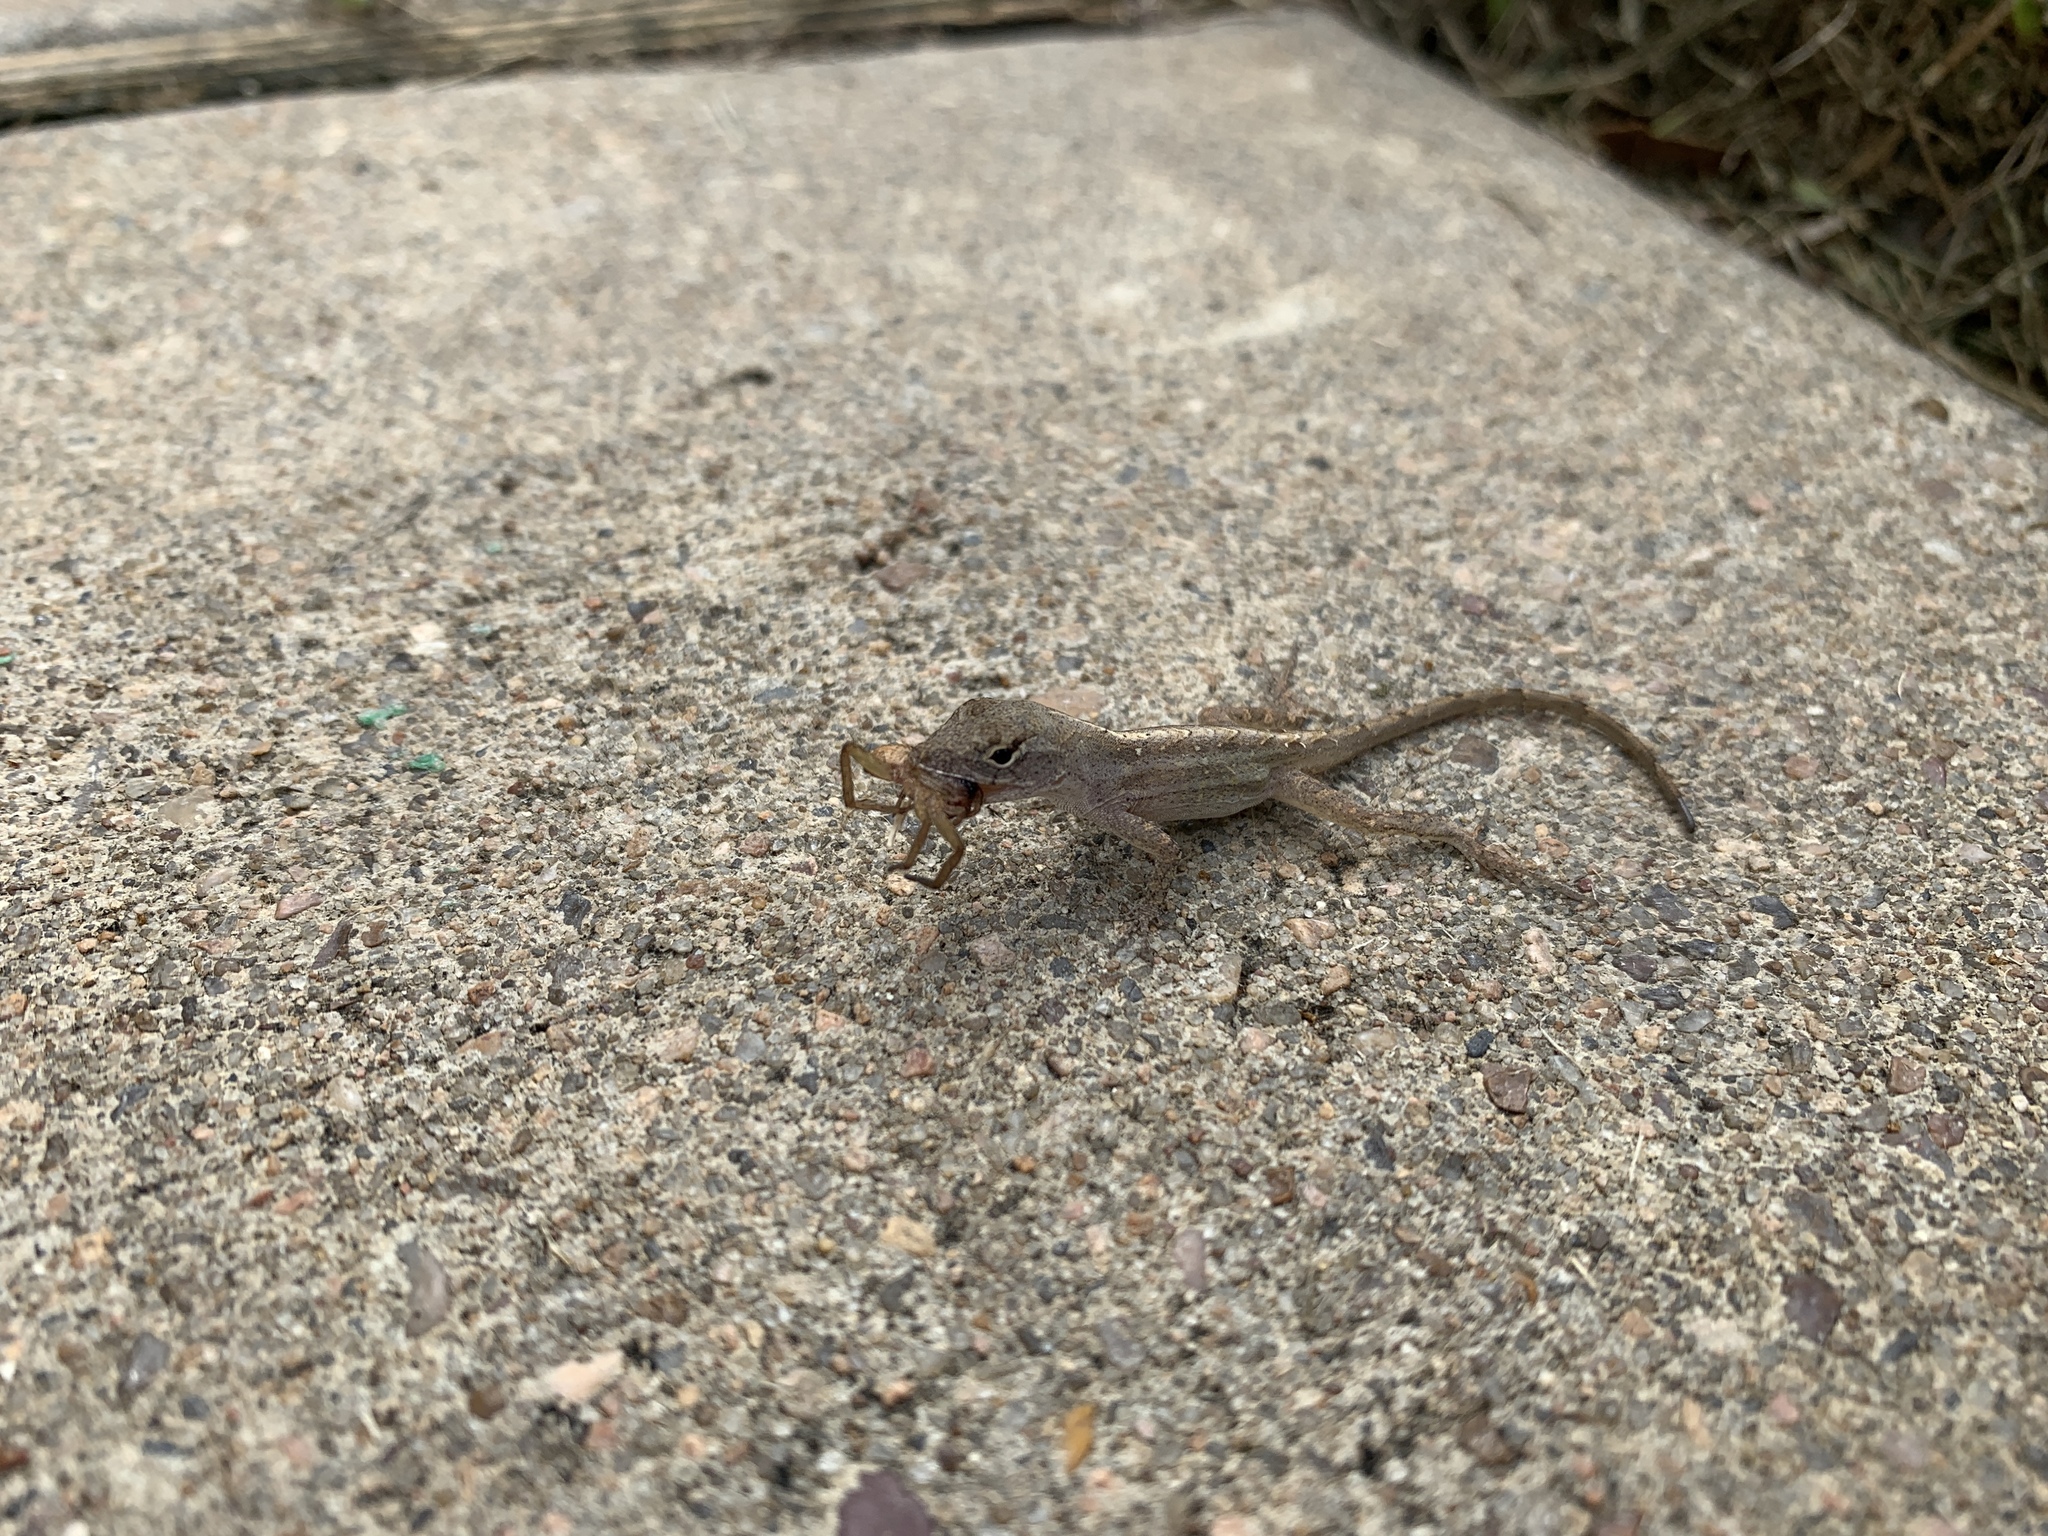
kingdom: Animalia
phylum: Chordata
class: Squamata
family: Dactyloidae
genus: Anolis
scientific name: Anolis sagrei
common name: Brown anole
